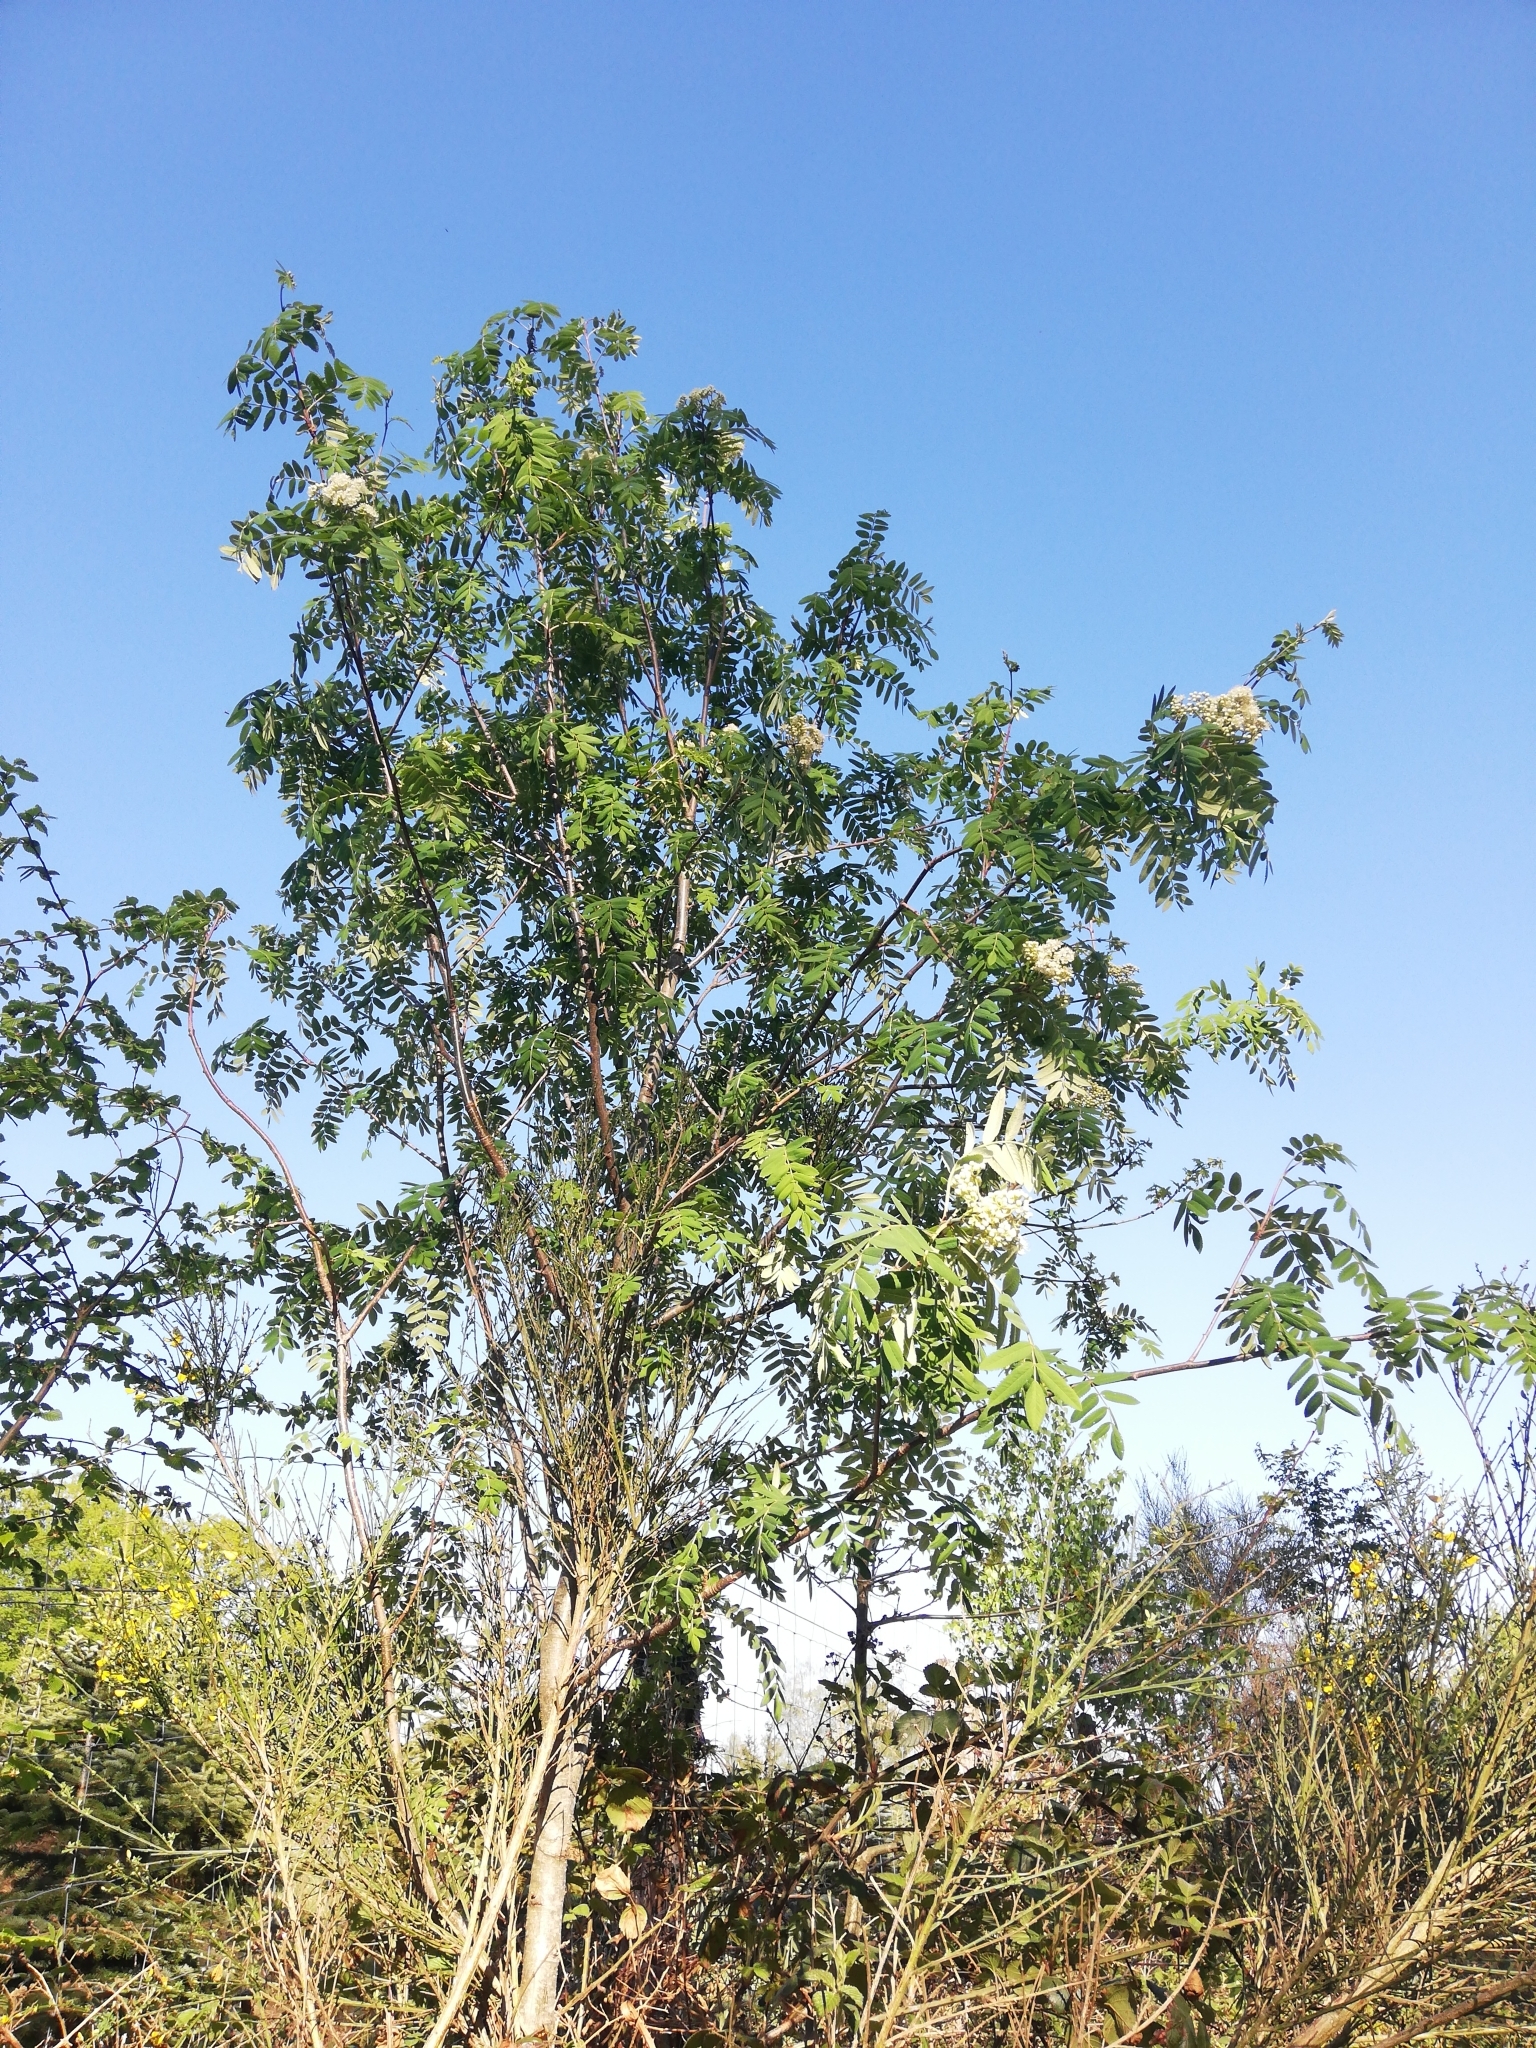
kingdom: Plantae
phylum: Tracheophyta
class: Magnoliopsida
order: Rosales
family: Rosaceae
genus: Sorbus
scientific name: Sorbus aucuparia
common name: Rowan
